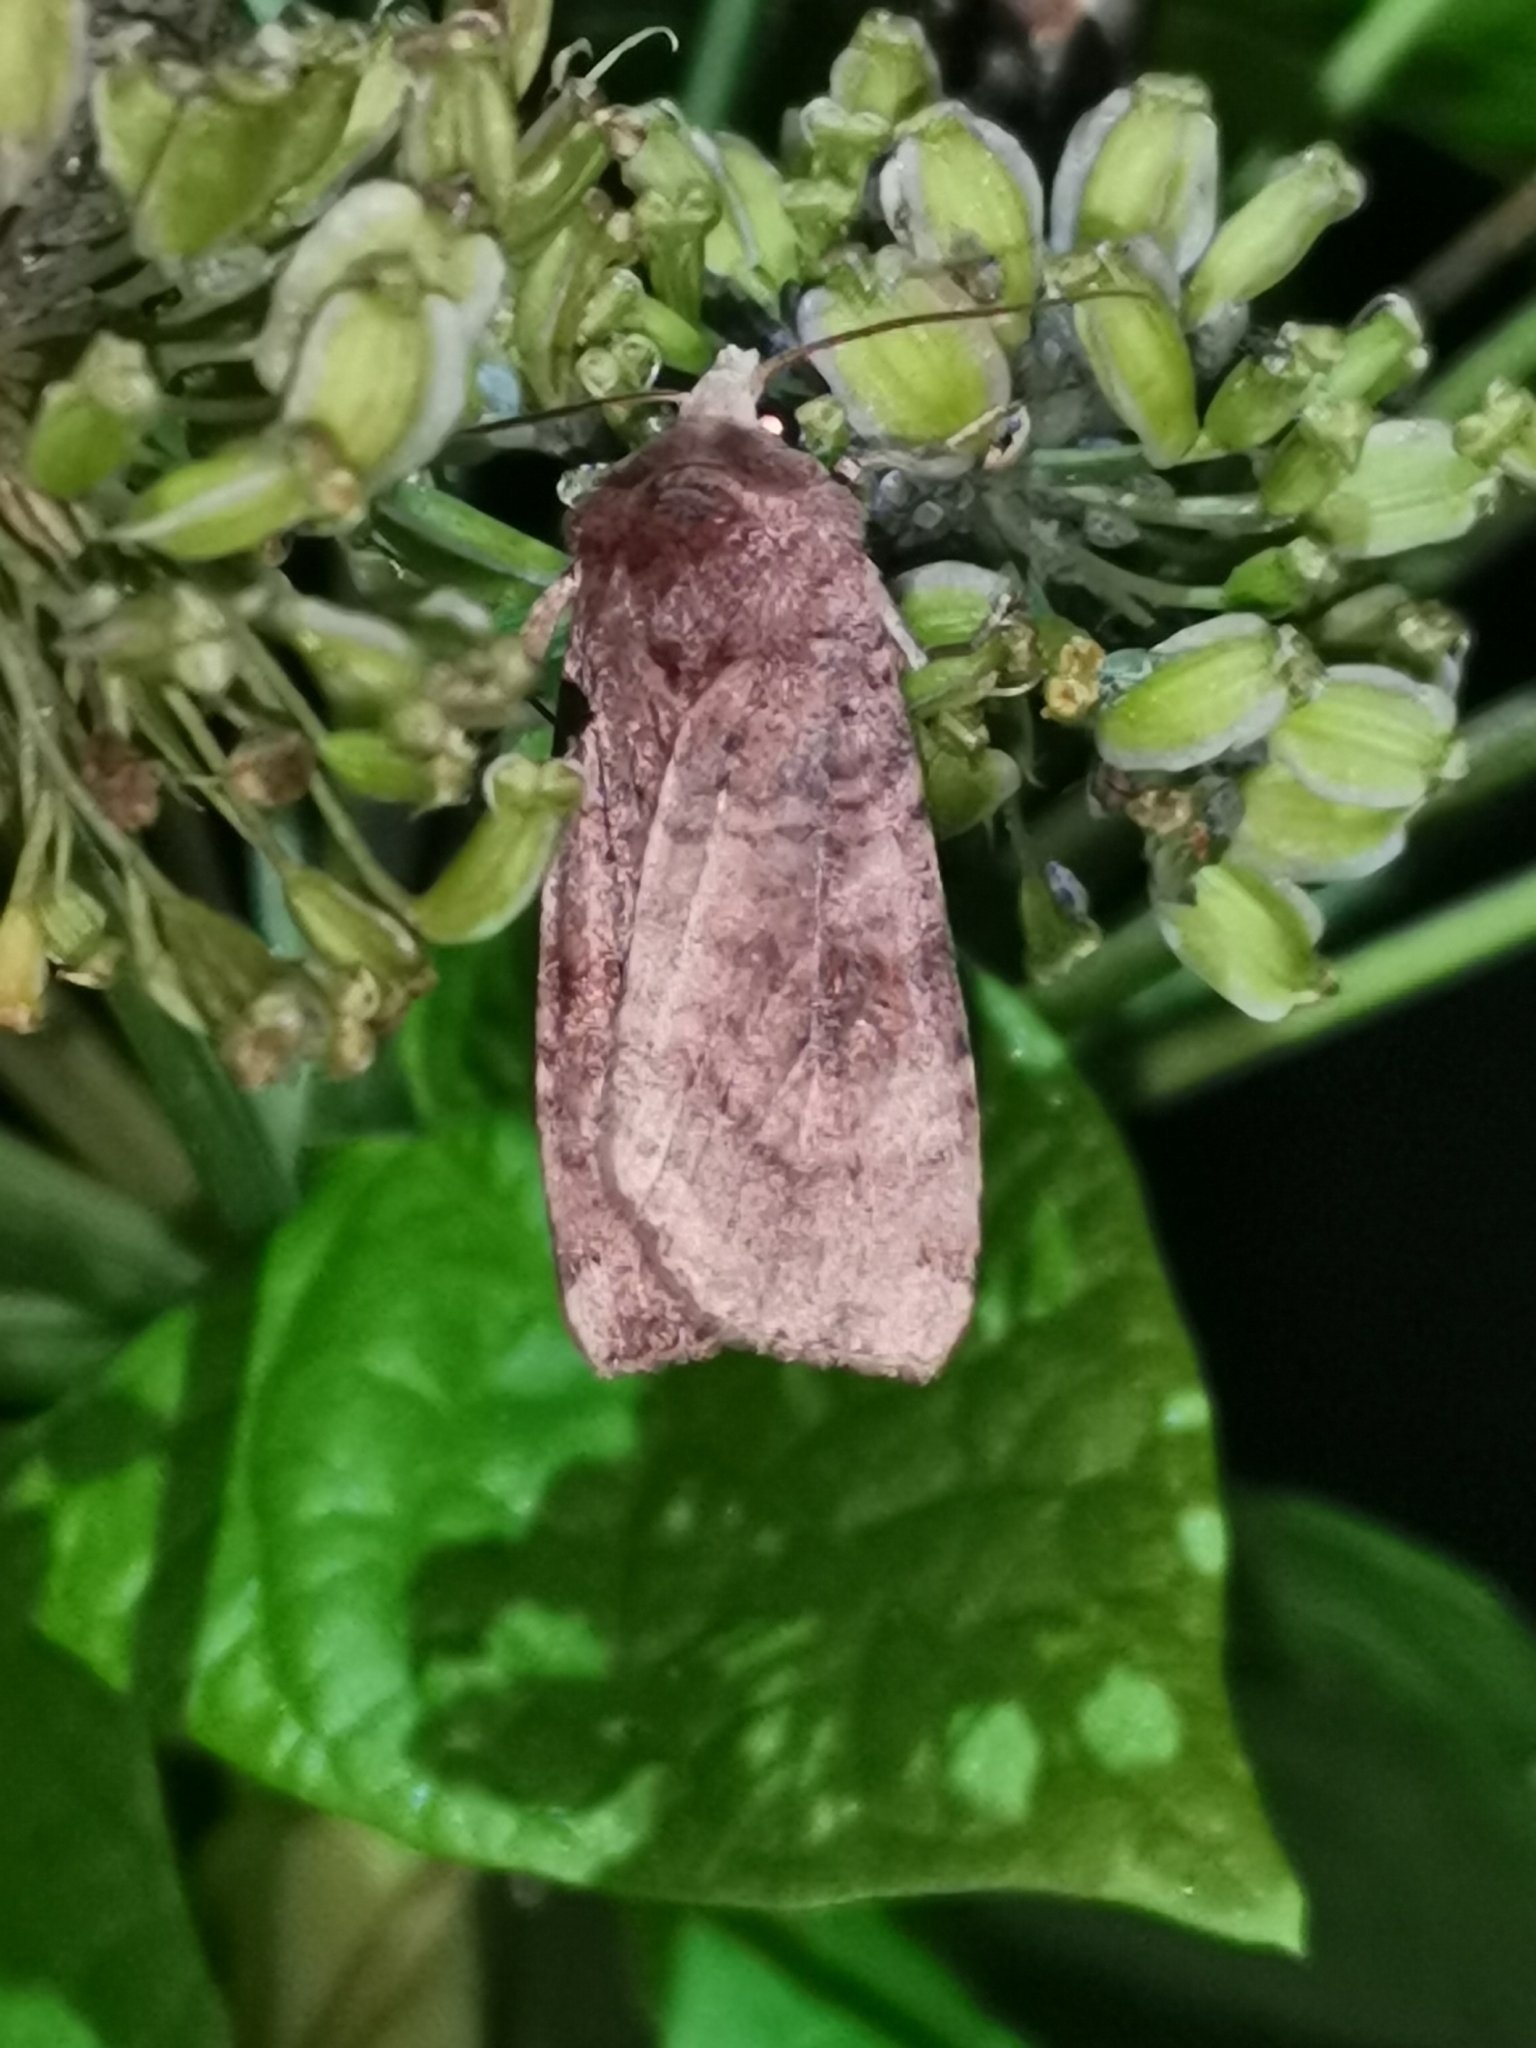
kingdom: Animalia
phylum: Arthropoda
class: Insecta
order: Lepidoptera
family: Noctuidae
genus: Xestia
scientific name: Xestia baja
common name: Dotted clay
